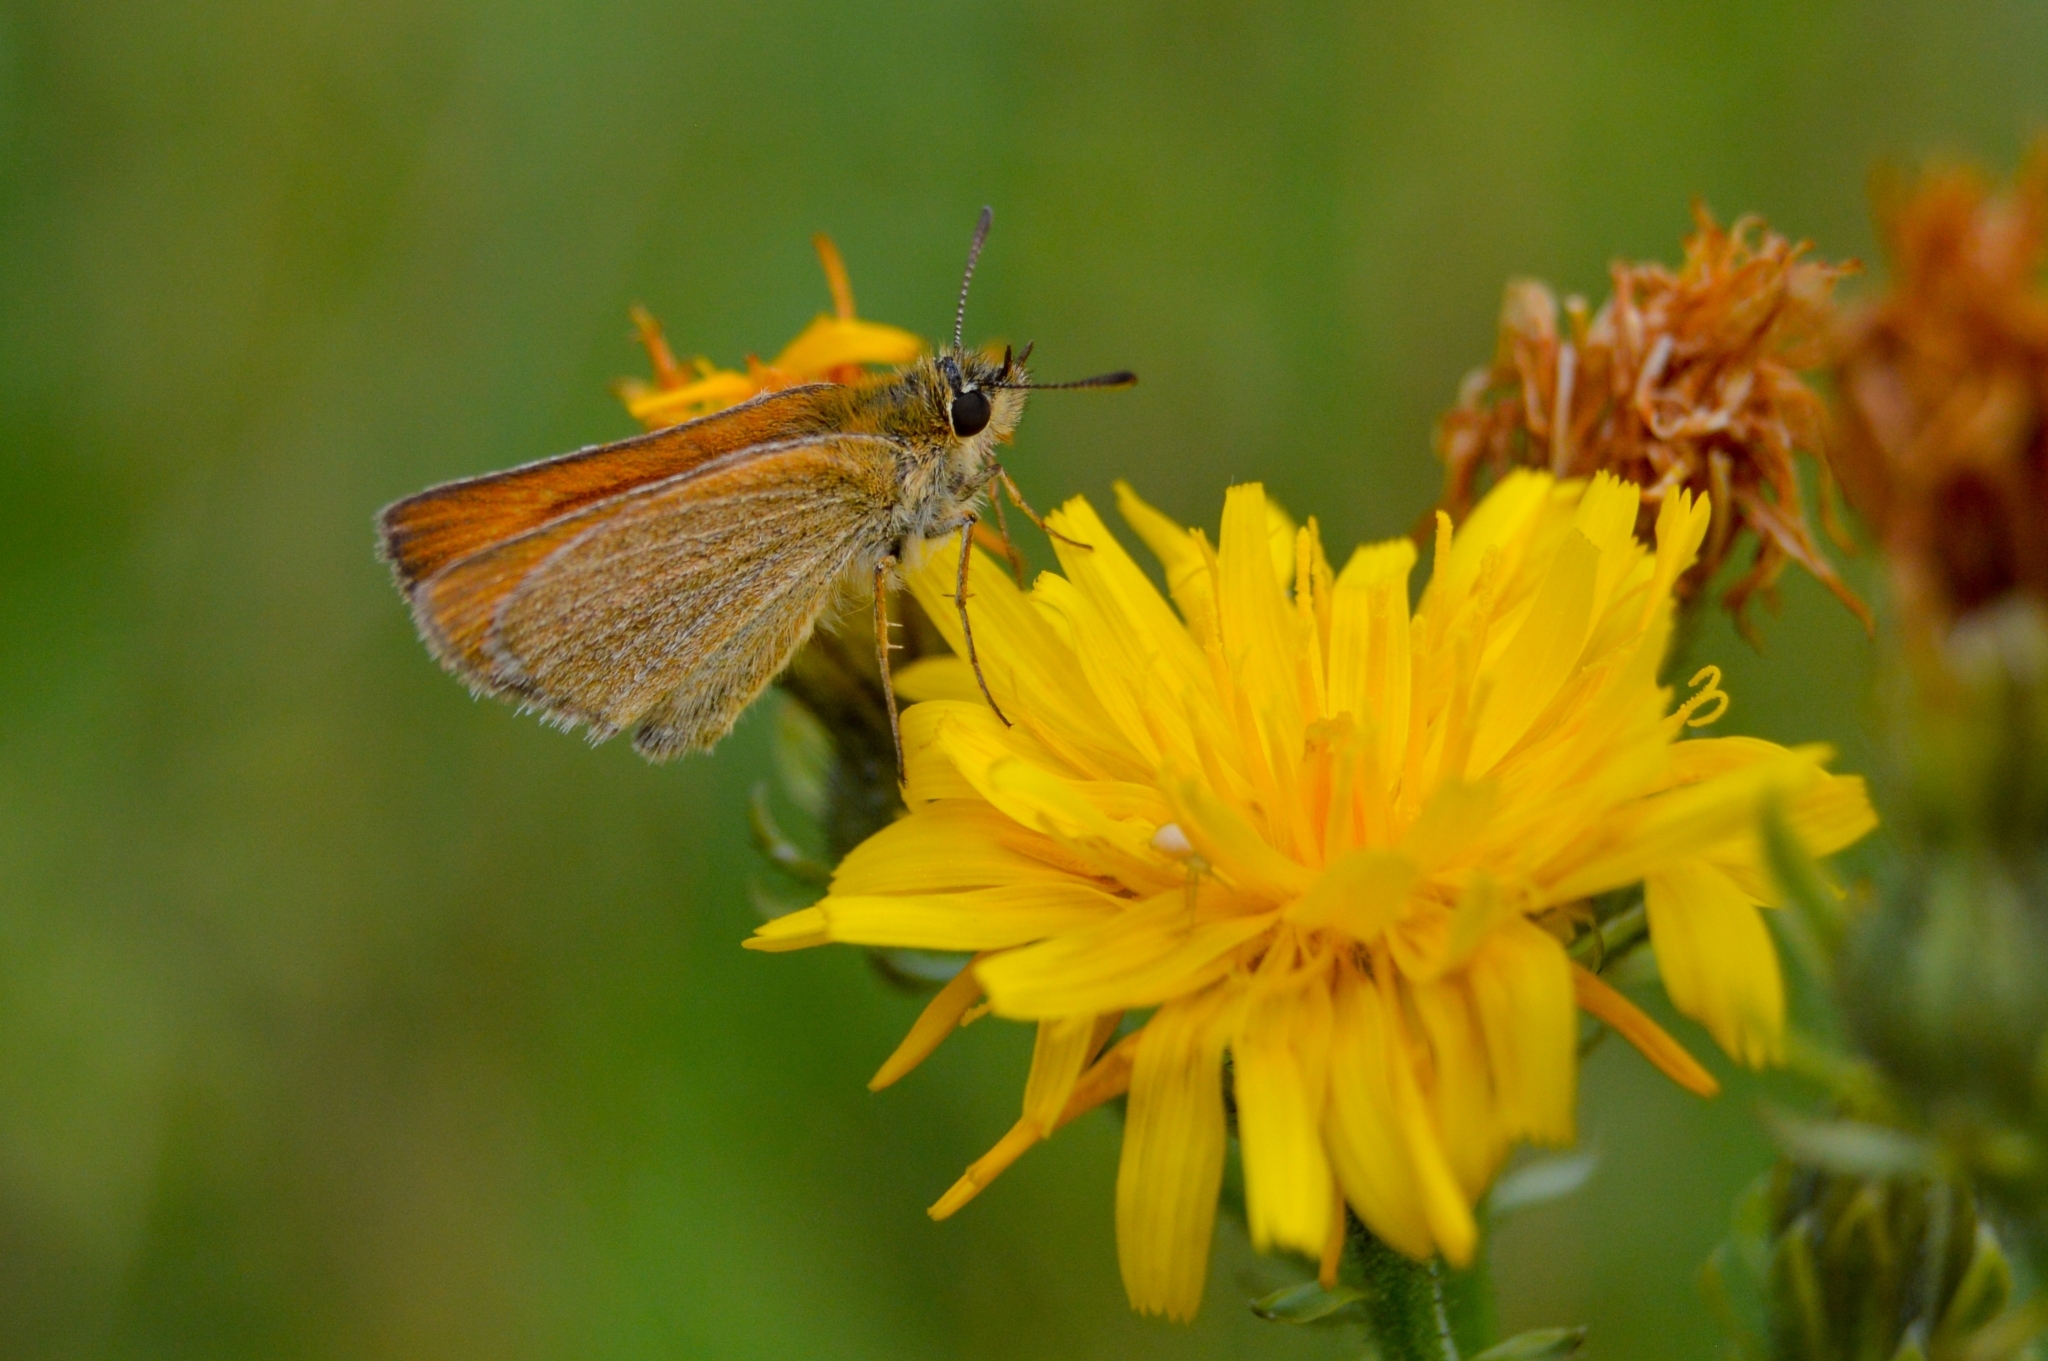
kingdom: Animalia
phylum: Arthropoda
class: Insecta
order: Lepidoptera
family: Hesperiidae
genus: Thymelicus
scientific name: Thymelicus lineola
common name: Essex skipper
